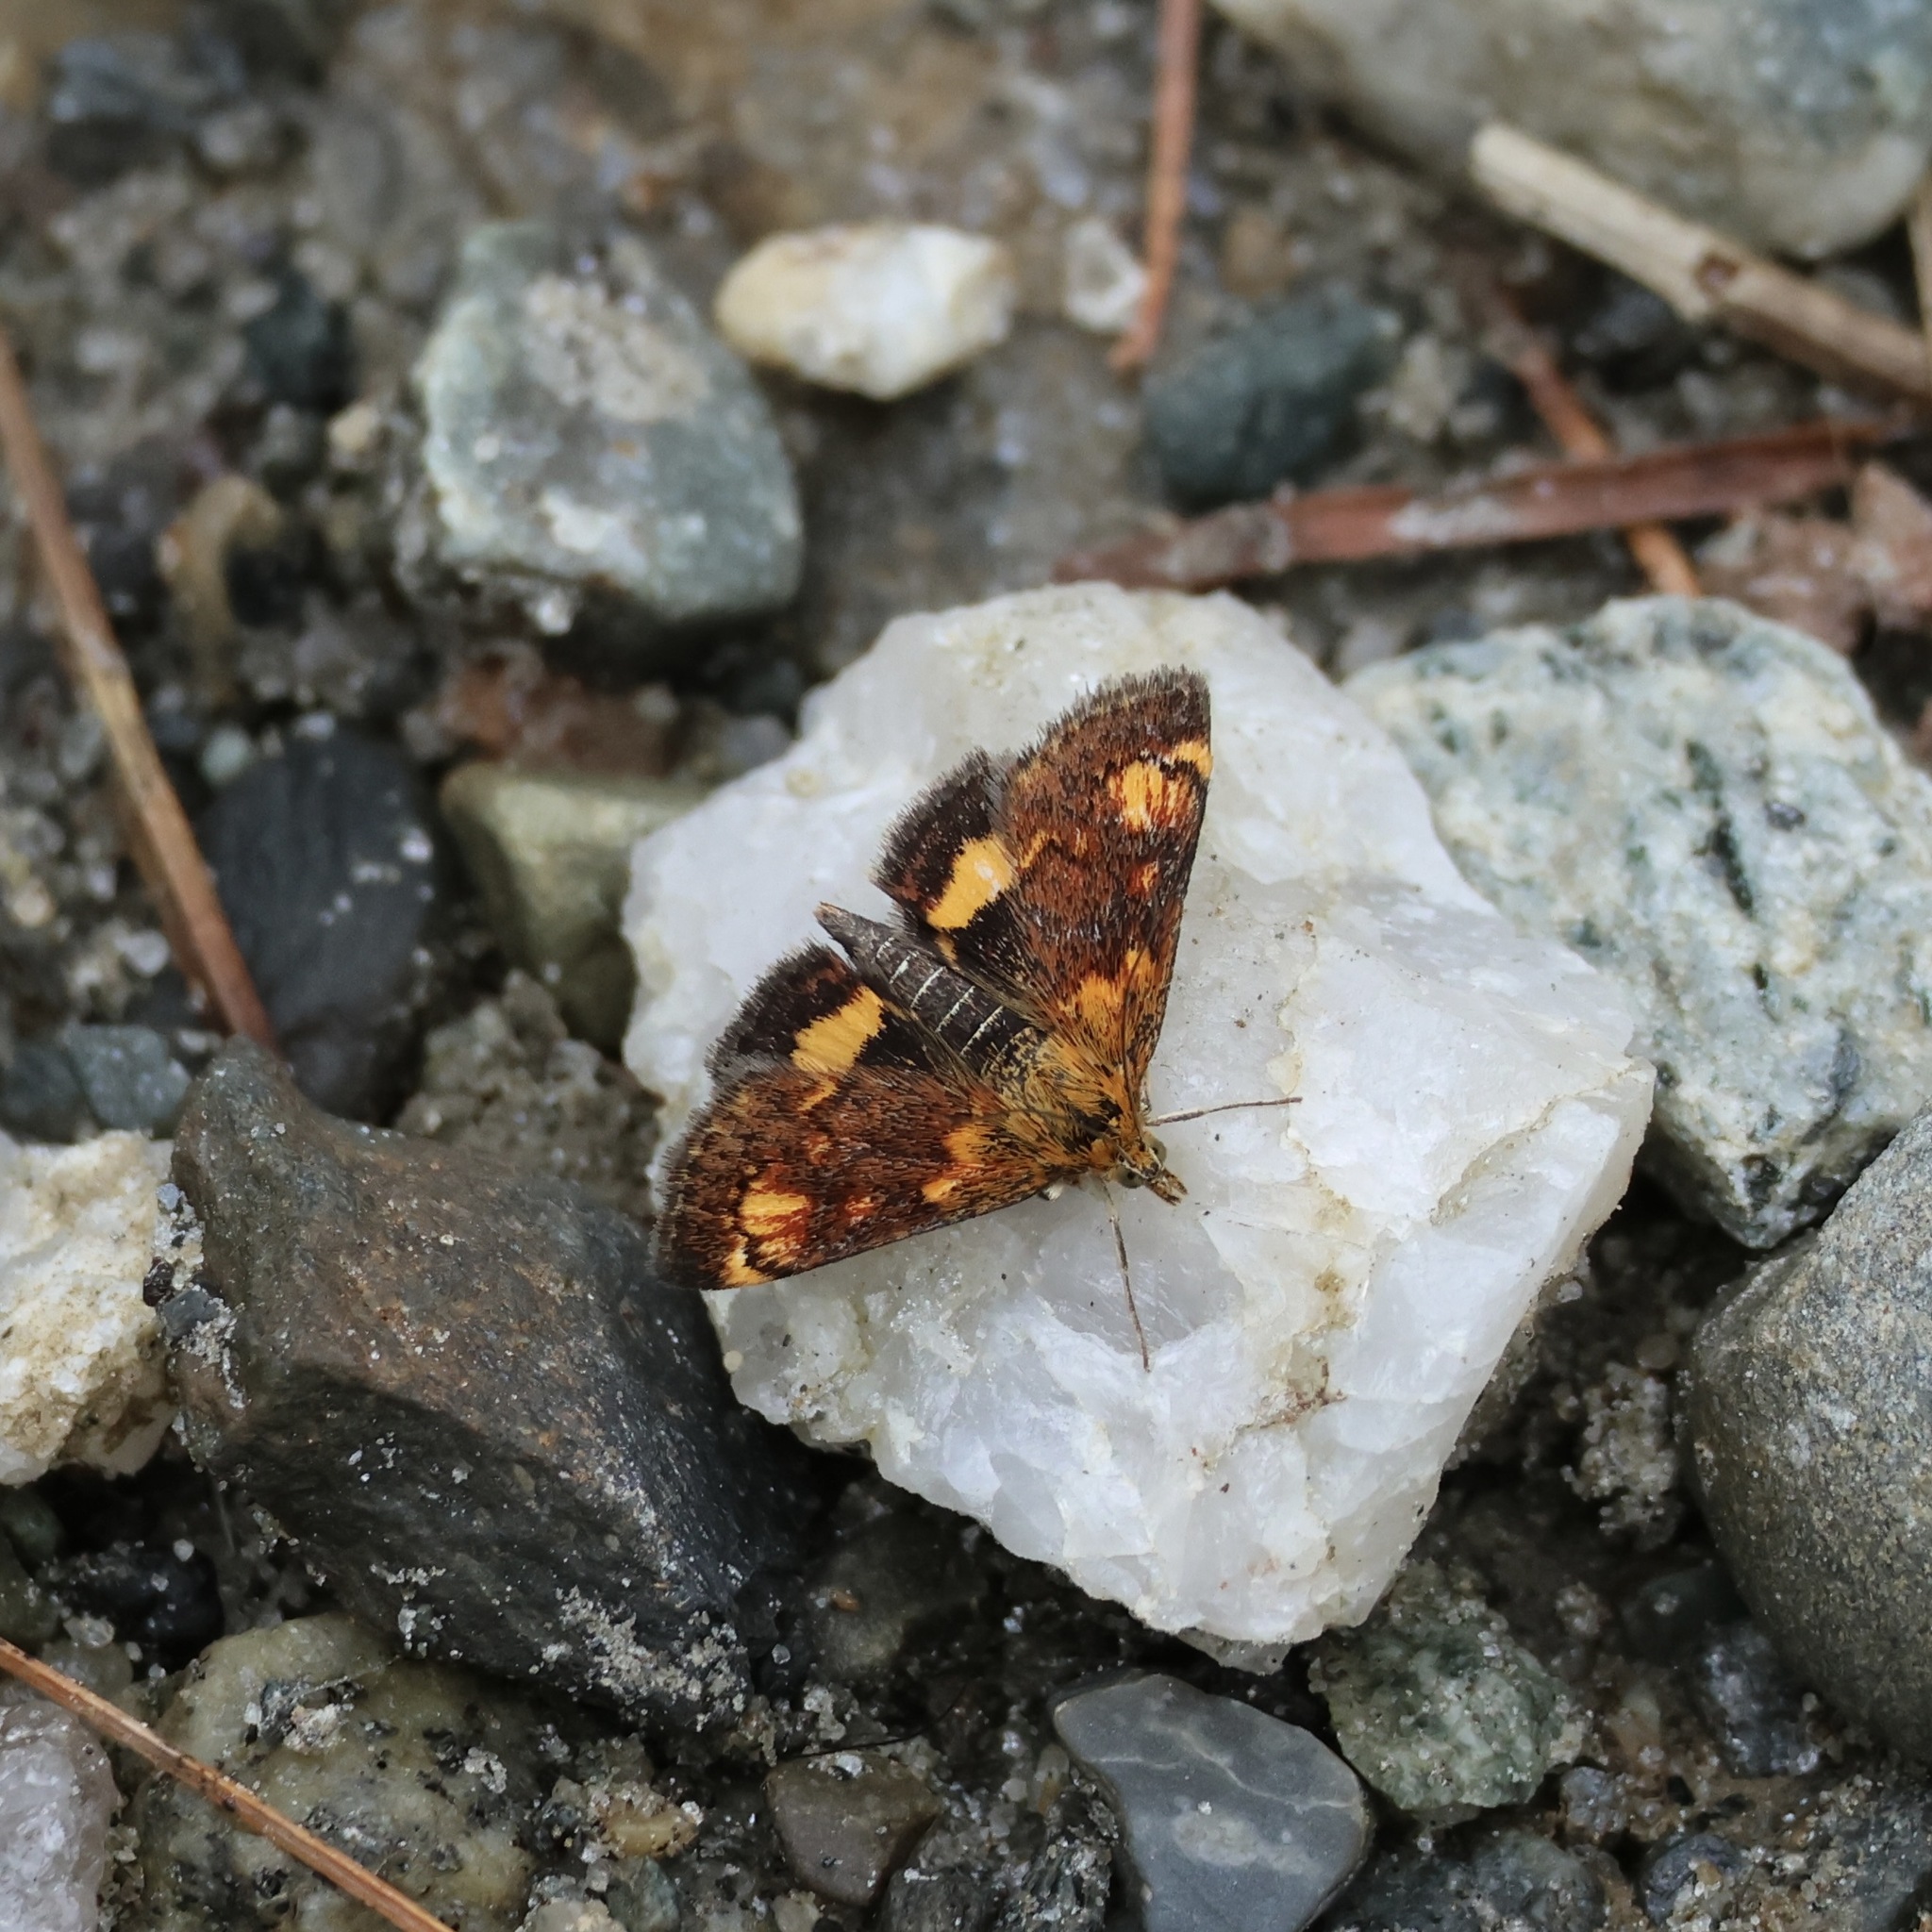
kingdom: Animalia
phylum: Arthropoda
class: Insecta
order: Lepidoptera
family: Crambidae
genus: Pyrausta
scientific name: Pyrausta orphisalis
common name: Orange mint moth
